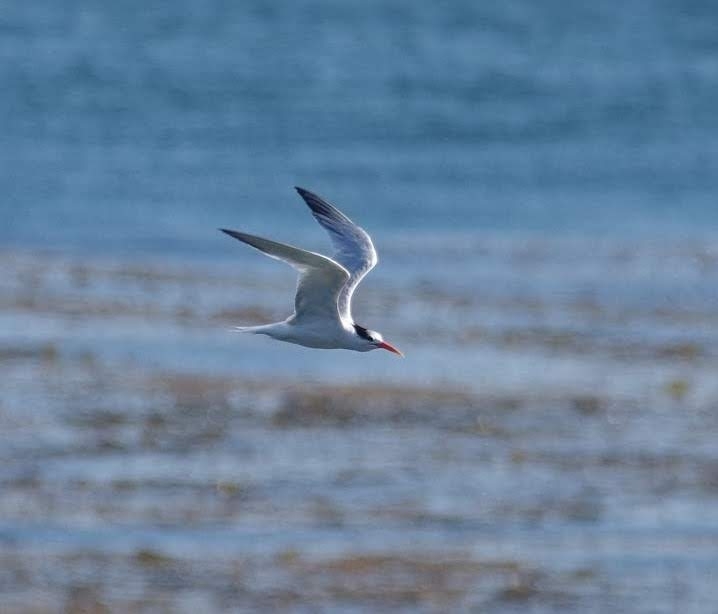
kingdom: Animalia
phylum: Chordata
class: Aves
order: Charadriiformes
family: Laridae
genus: Thalasseus
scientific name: Thalasseus elegans
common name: Elegant tern
